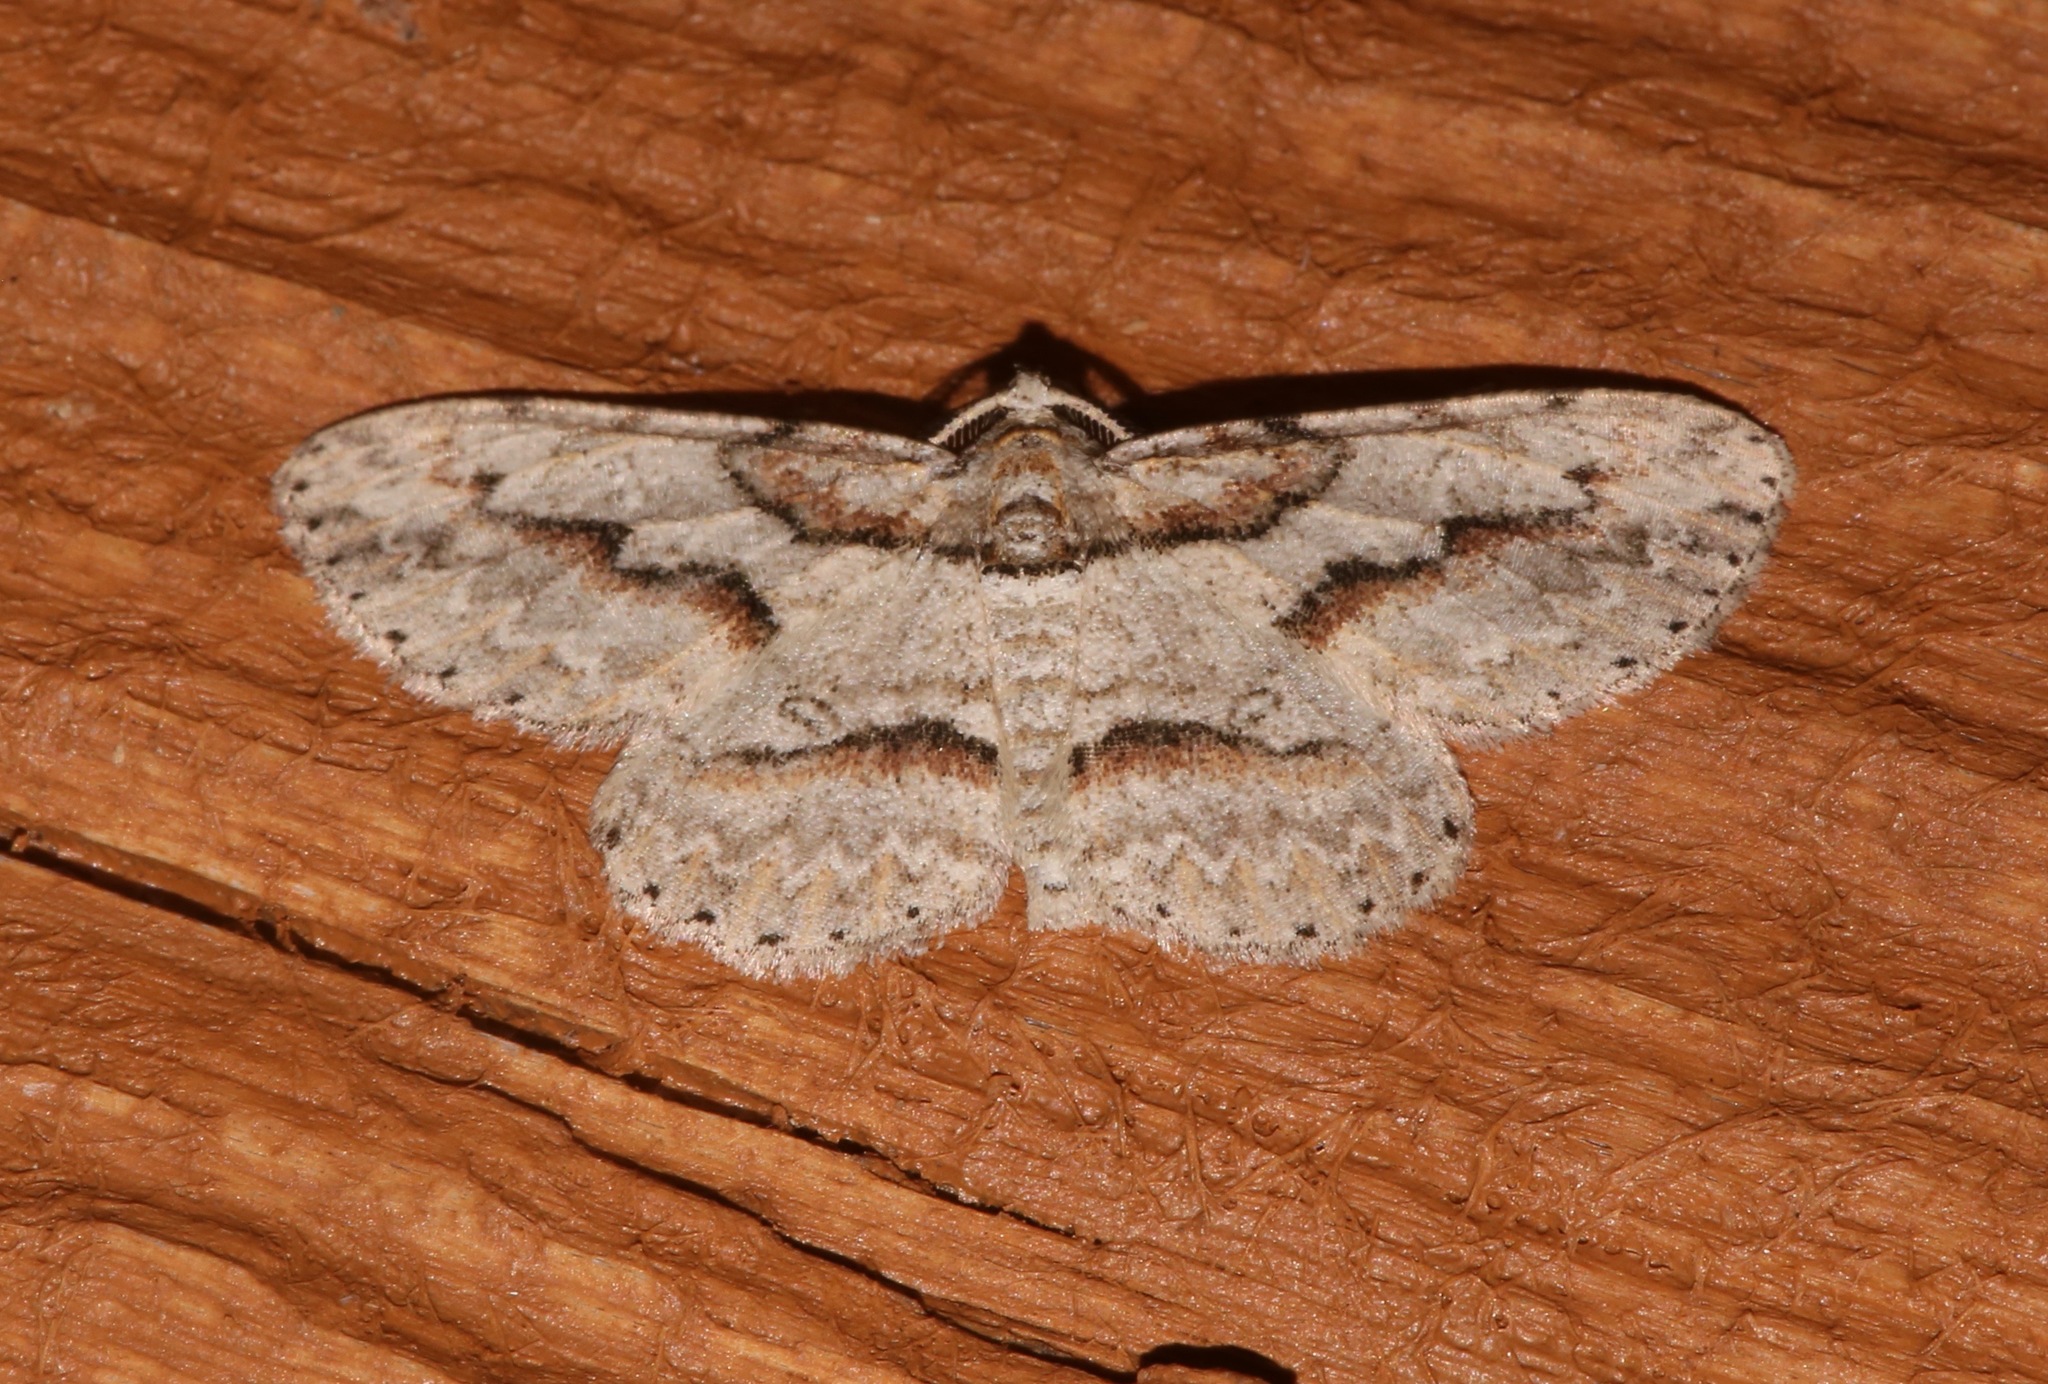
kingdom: Animalia
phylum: Arthropoda
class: Insecta
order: Lepidoptera
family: Geometridae
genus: Iridopsis
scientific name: Iridopsis pergracilis
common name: Cypress looper
